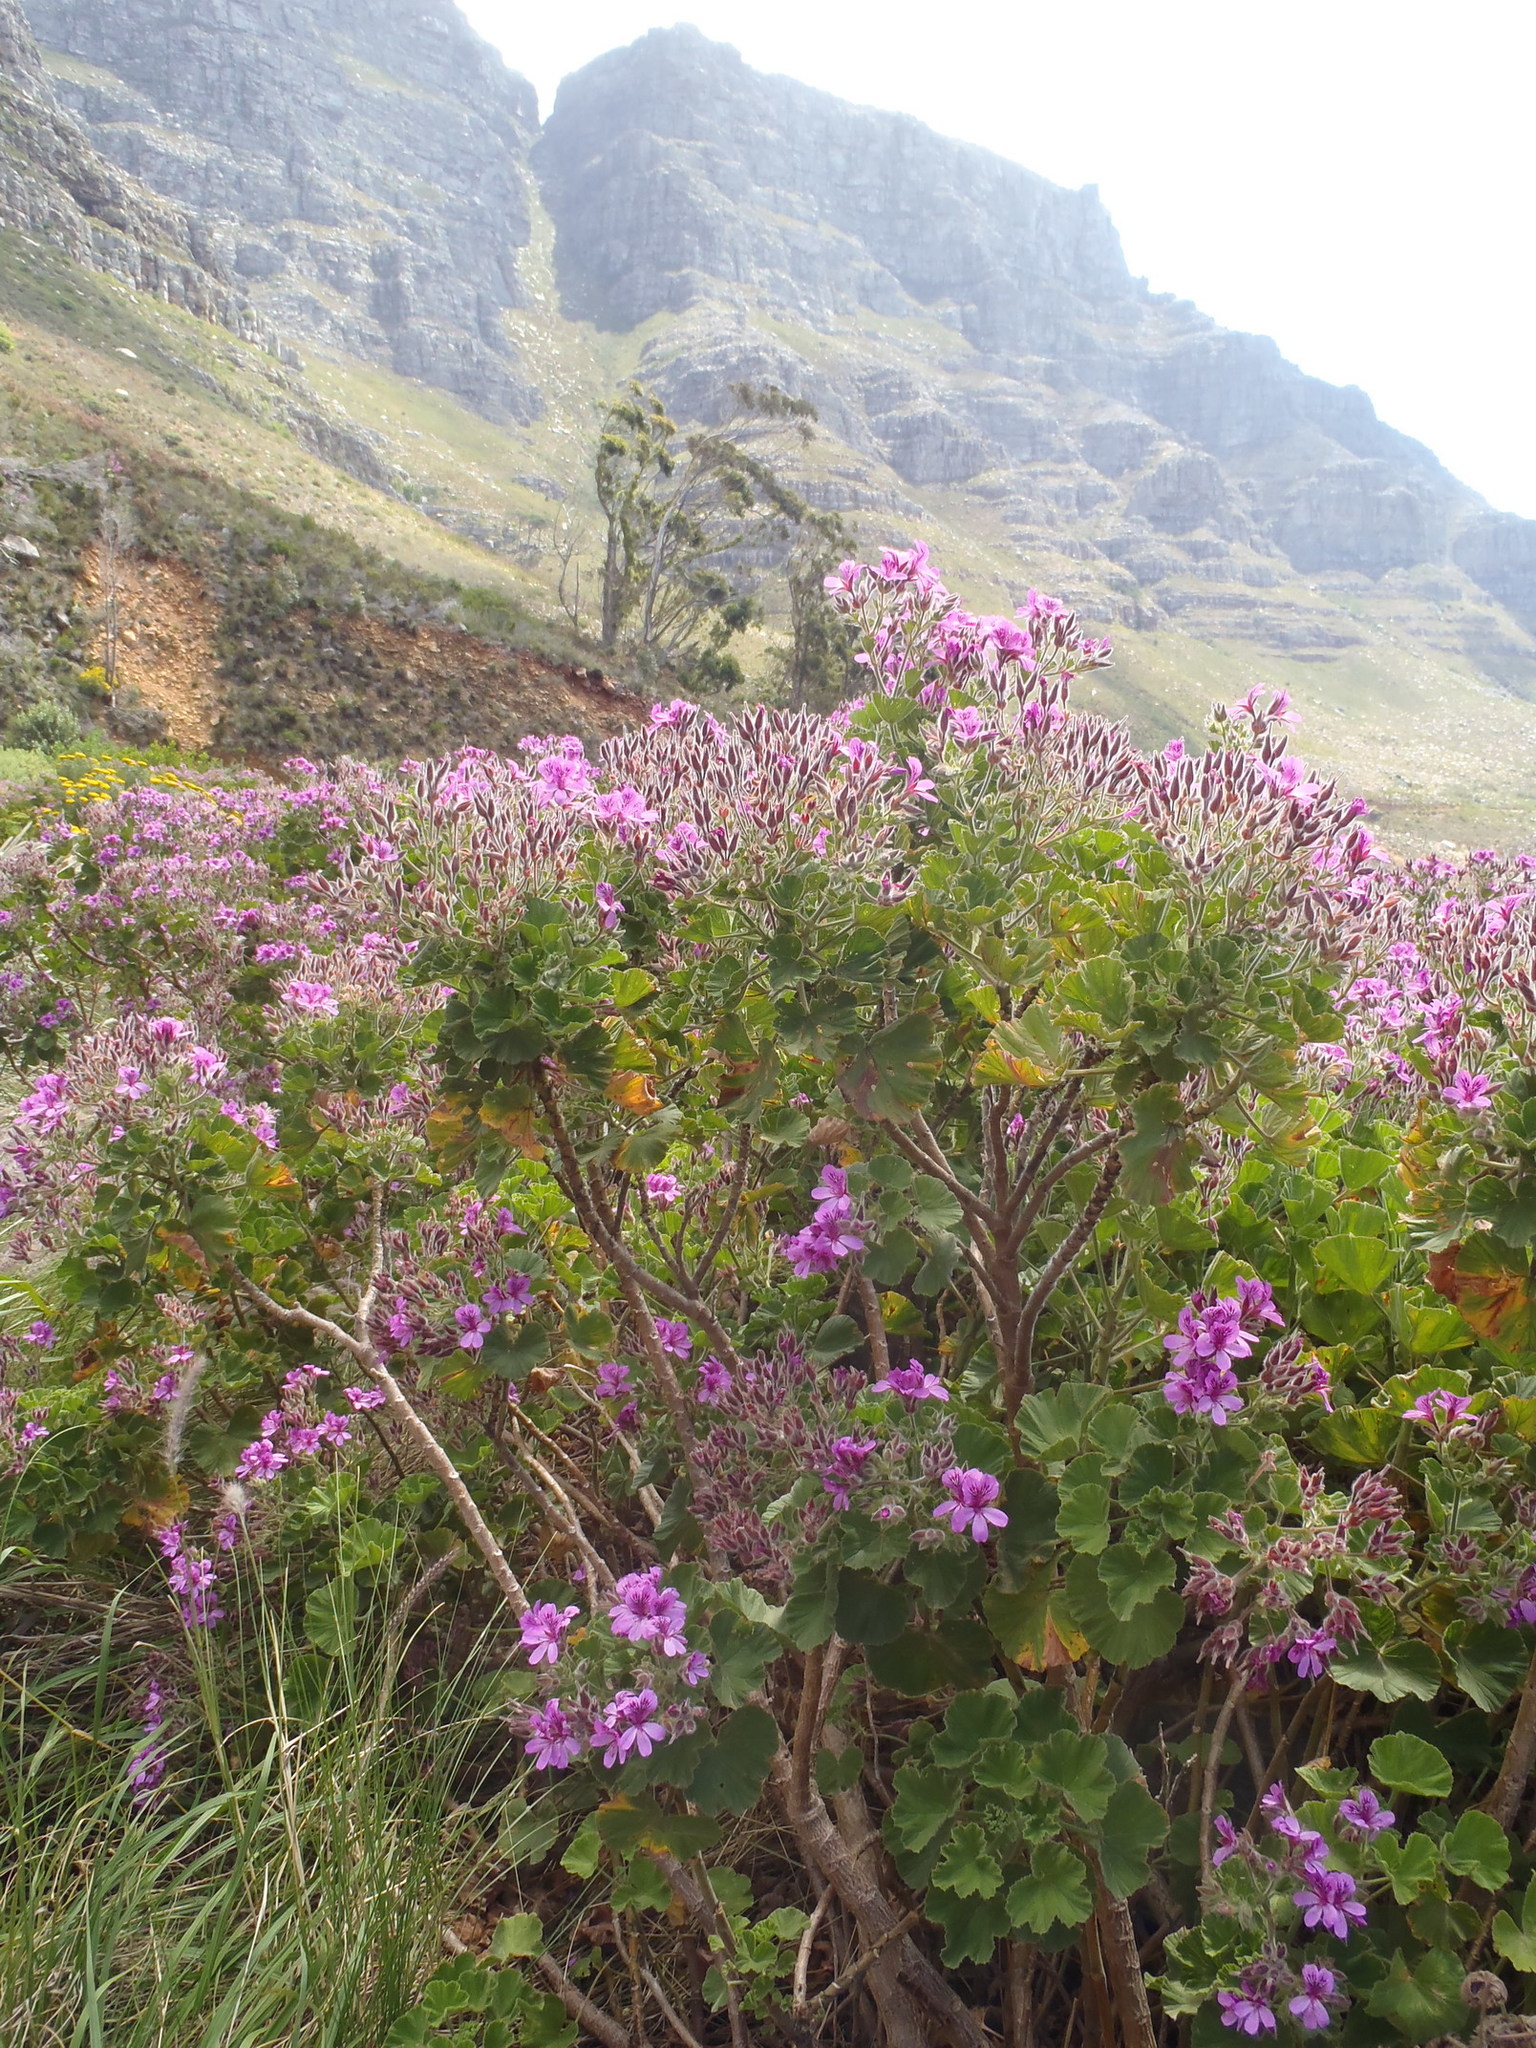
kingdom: Plantae
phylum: Tracheophyta
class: Magnoliopsida
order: Geraniales
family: Geraniaceae
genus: Pelargonium
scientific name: Pelargonium cucullatum
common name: Tree pelargonium
